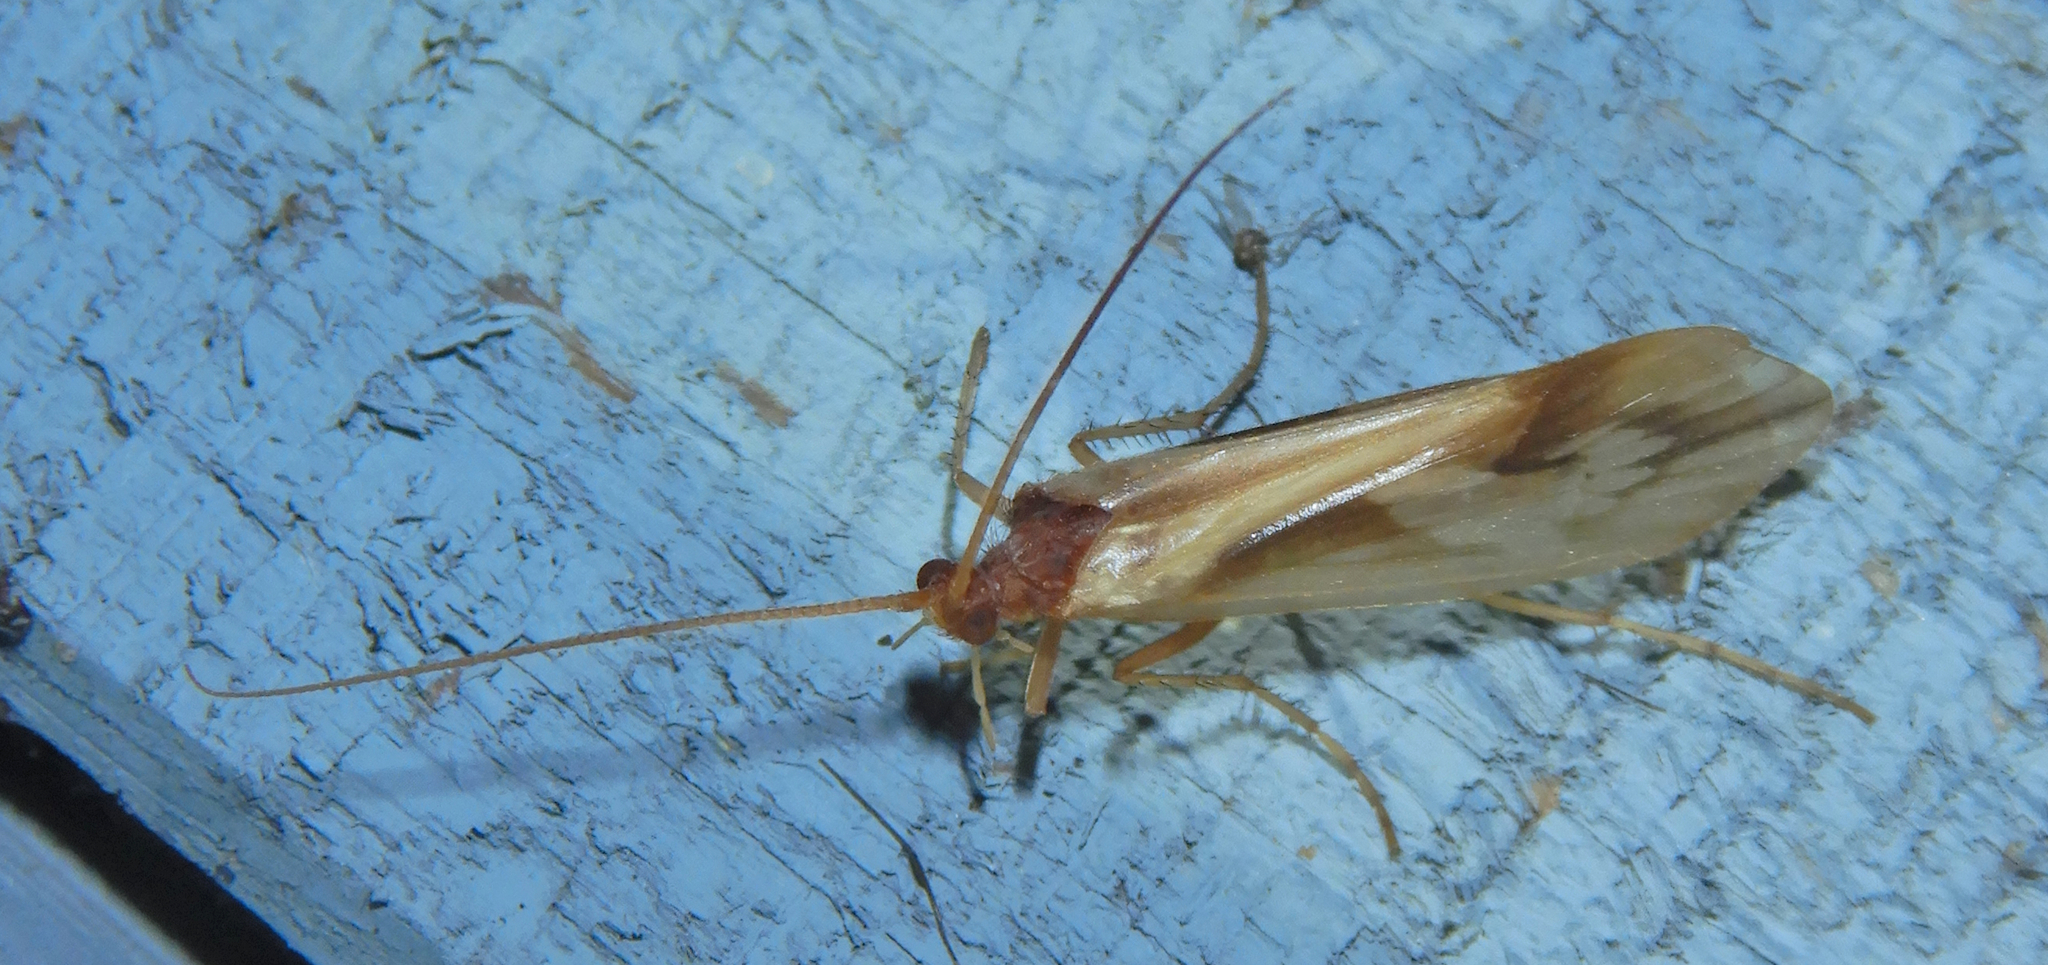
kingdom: Animalia
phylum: Arthropoda
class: Insecta
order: Trichoptera
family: Limnephilidae
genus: Platycentropus
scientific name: Platycentropus radiatus
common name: Chocolate-and-cream sedge
